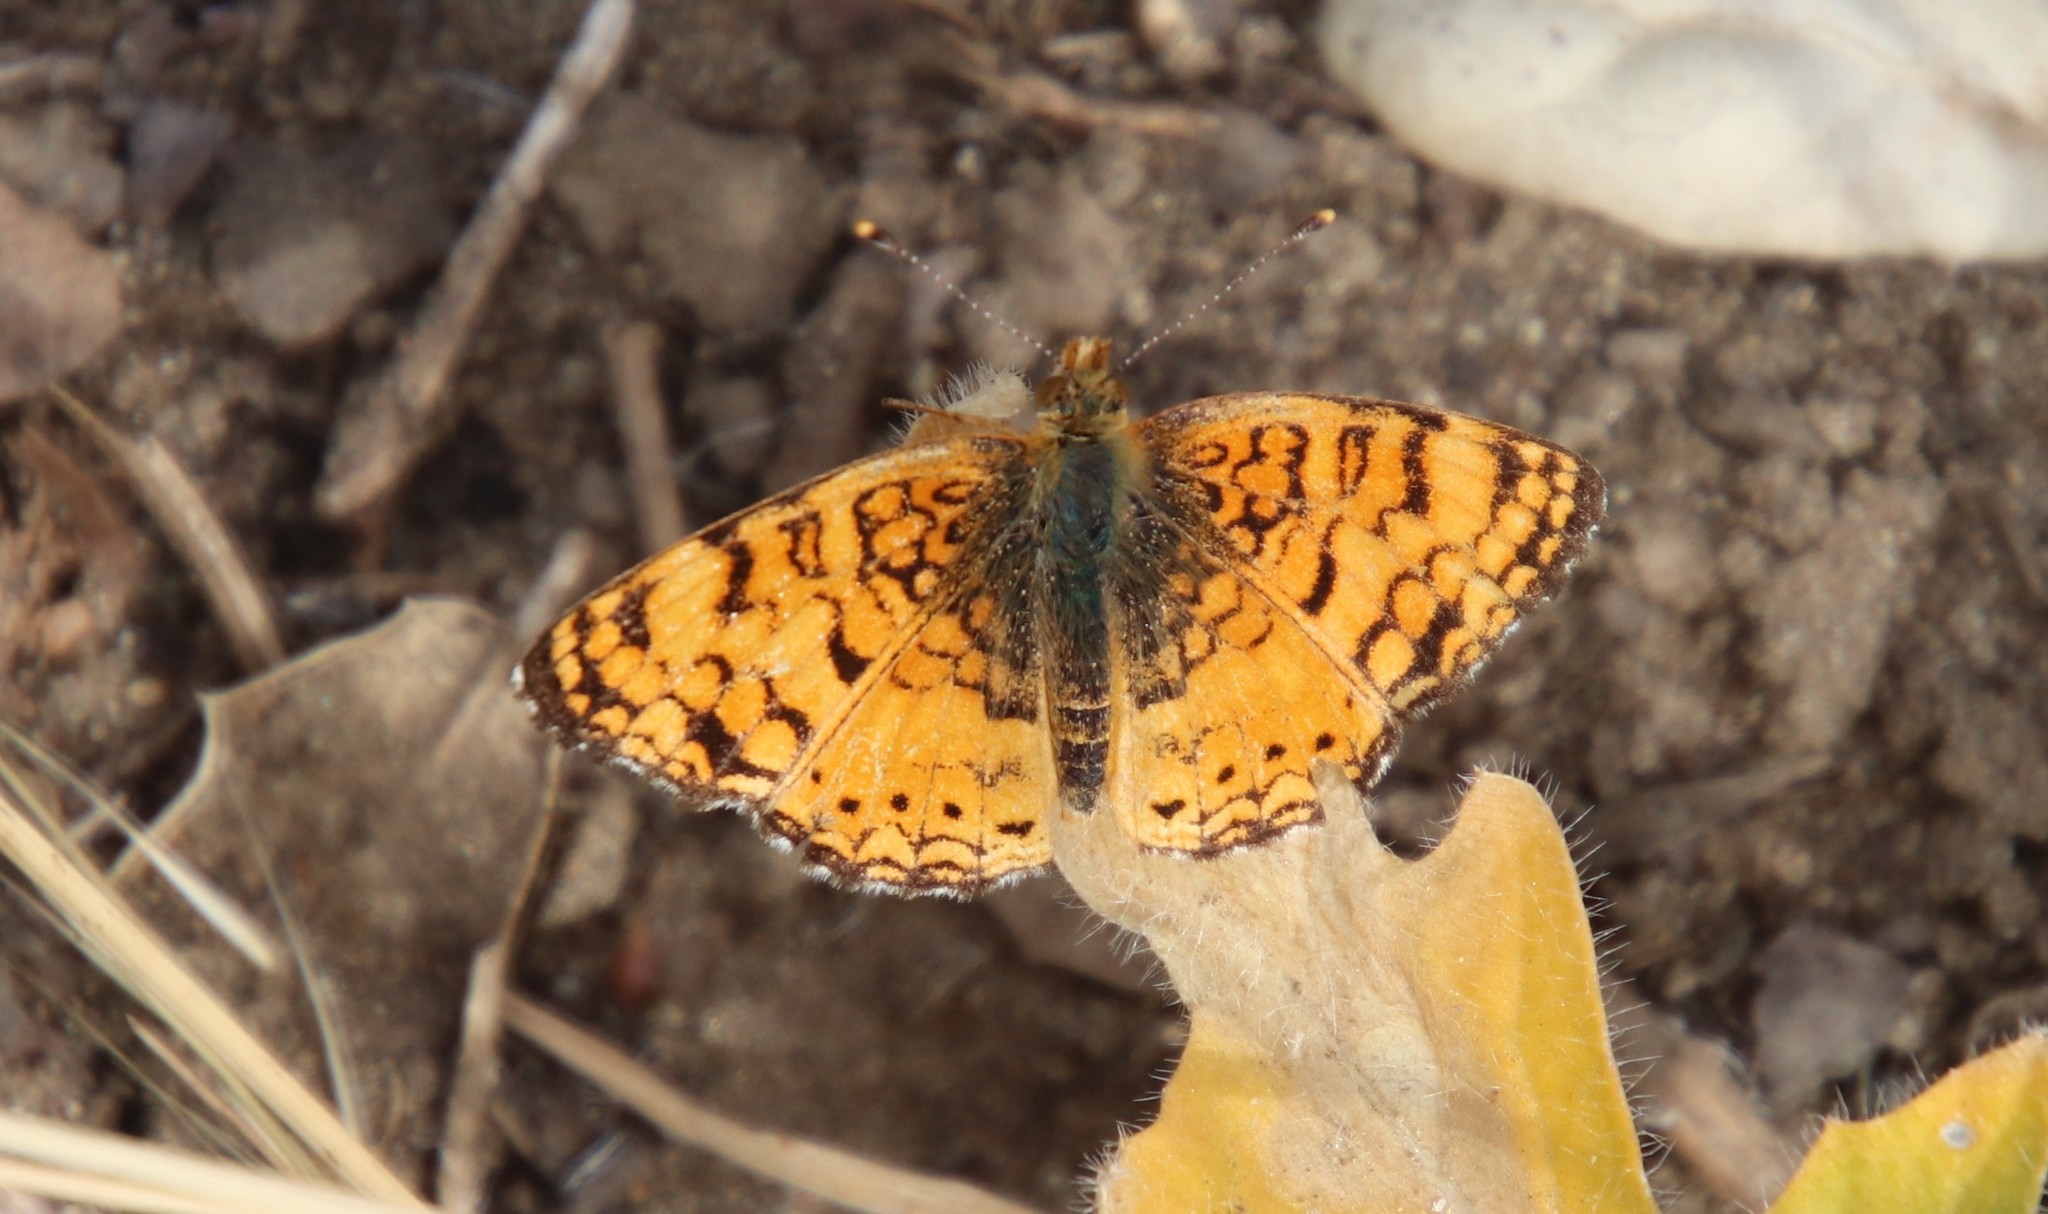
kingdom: Animalia
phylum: Arthropoda
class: Insecta
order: Lepidoptera
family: Nymphalidae
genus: Eresia
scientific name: Eresia aveyrona
